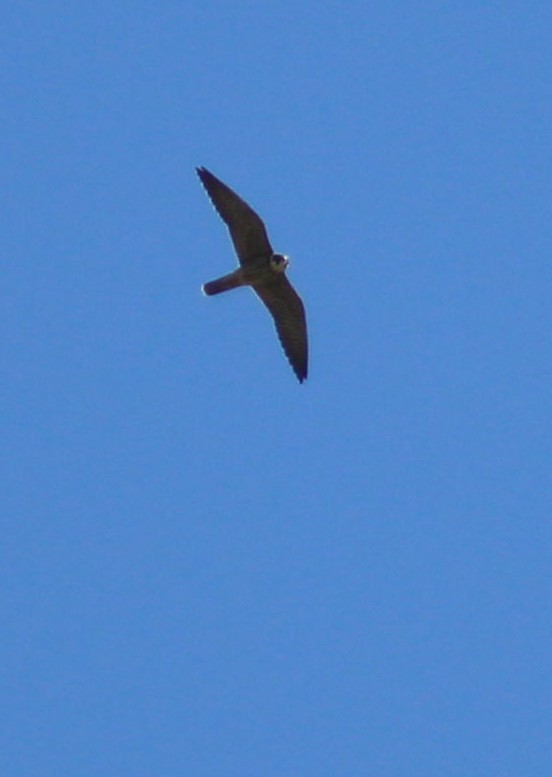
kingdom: Animalia
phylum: Chordata
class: Aves
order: Falconiformes
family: Falconidae
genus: Falco
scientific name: Falco subbuteo
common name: Eurasian hobby
